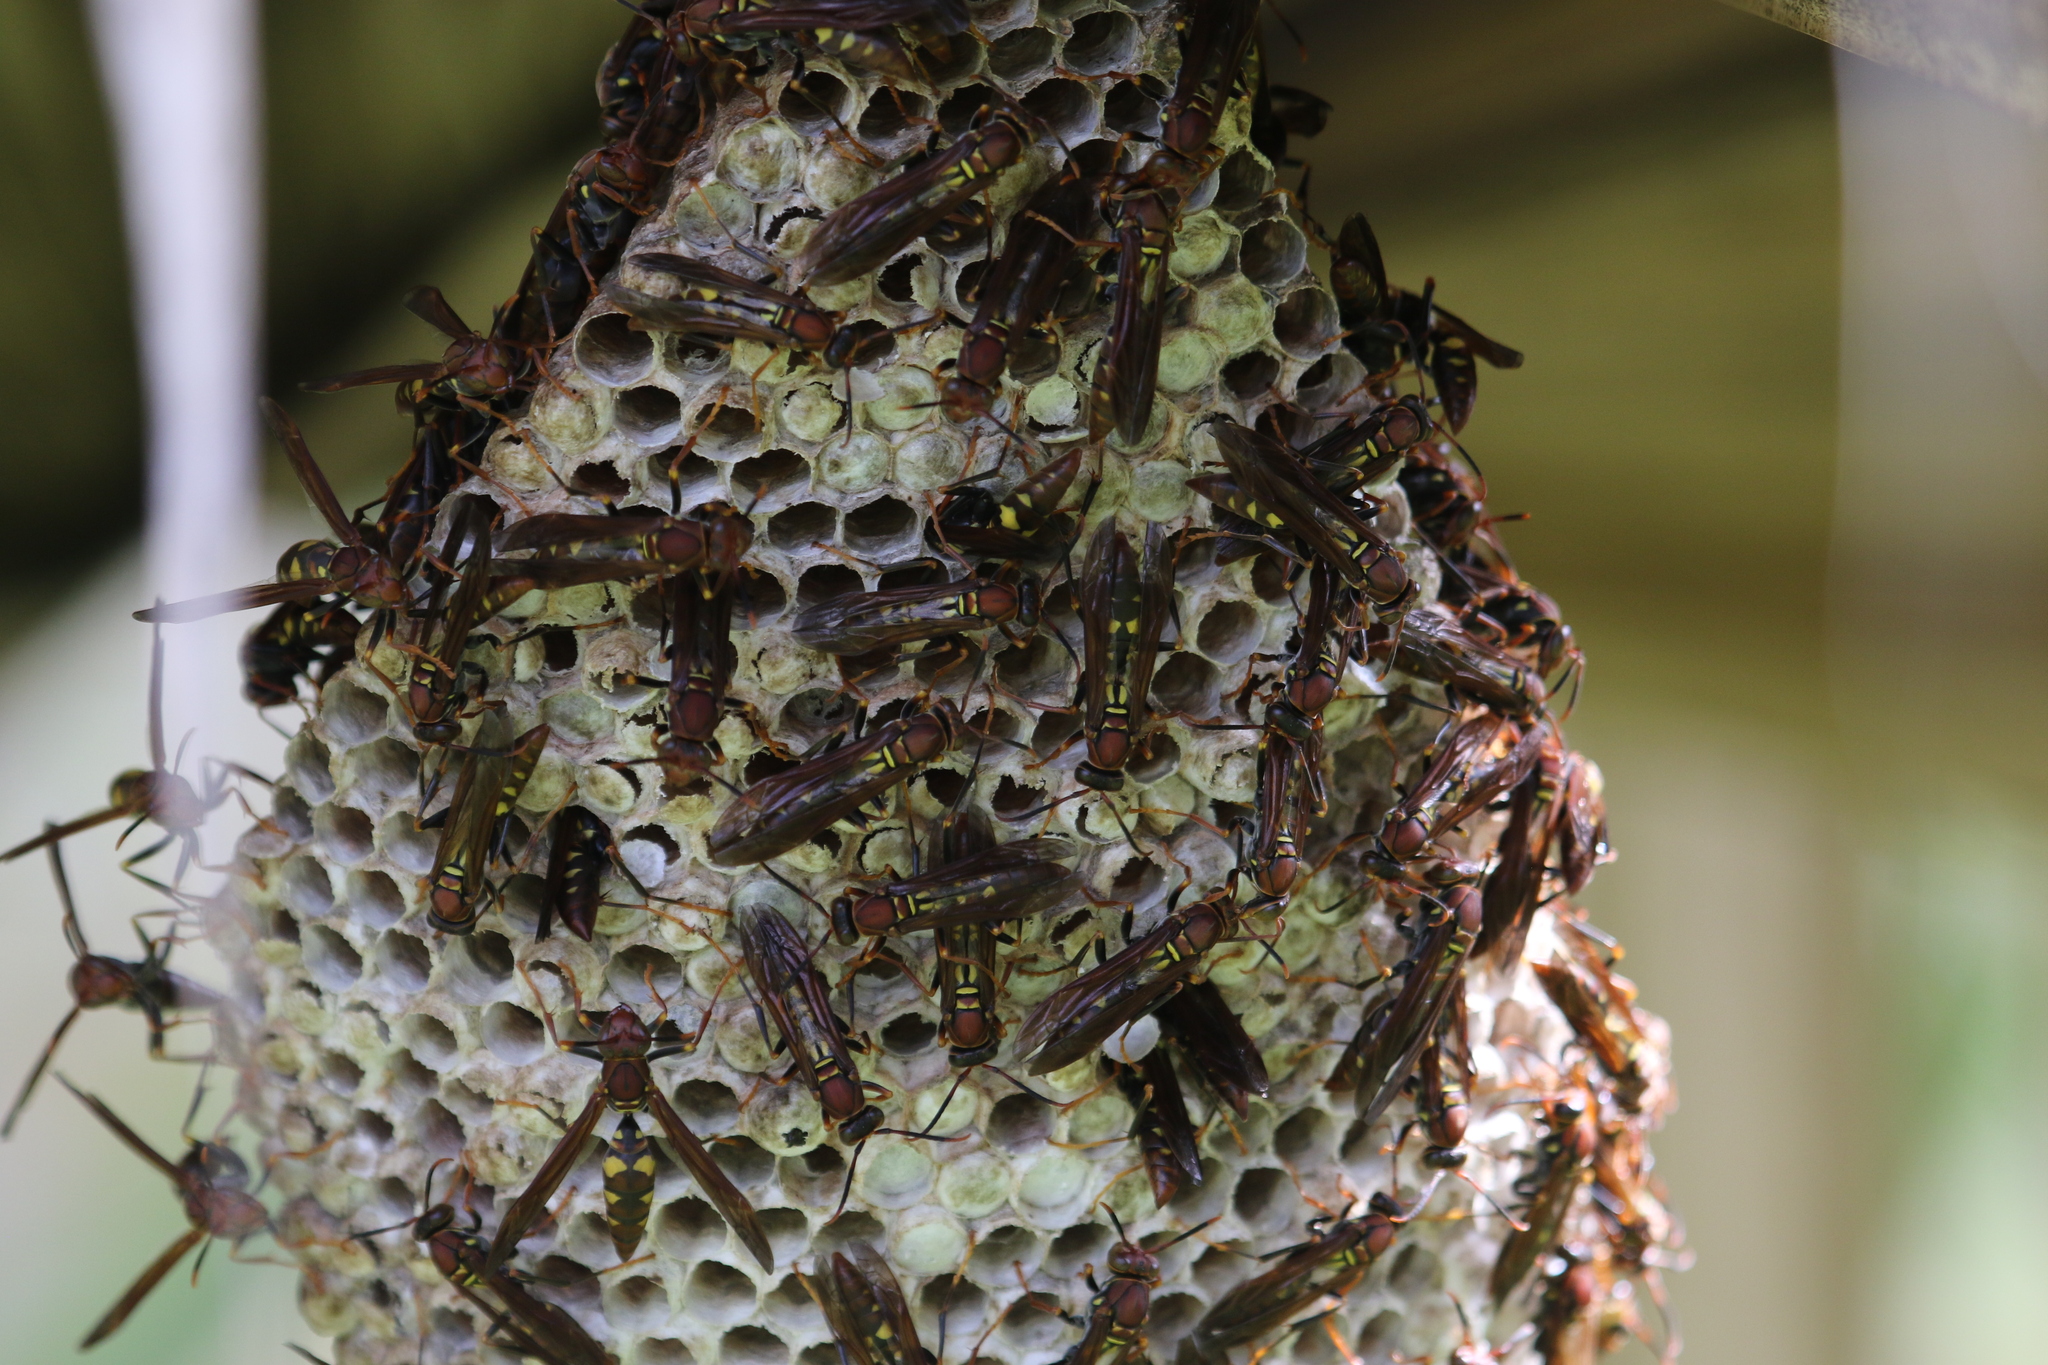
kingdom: Animalia
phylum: Arthropoda
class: Insecta
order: Hymenoptera
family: Eumenidae
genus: Polistes
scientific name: Polistes versicolor
